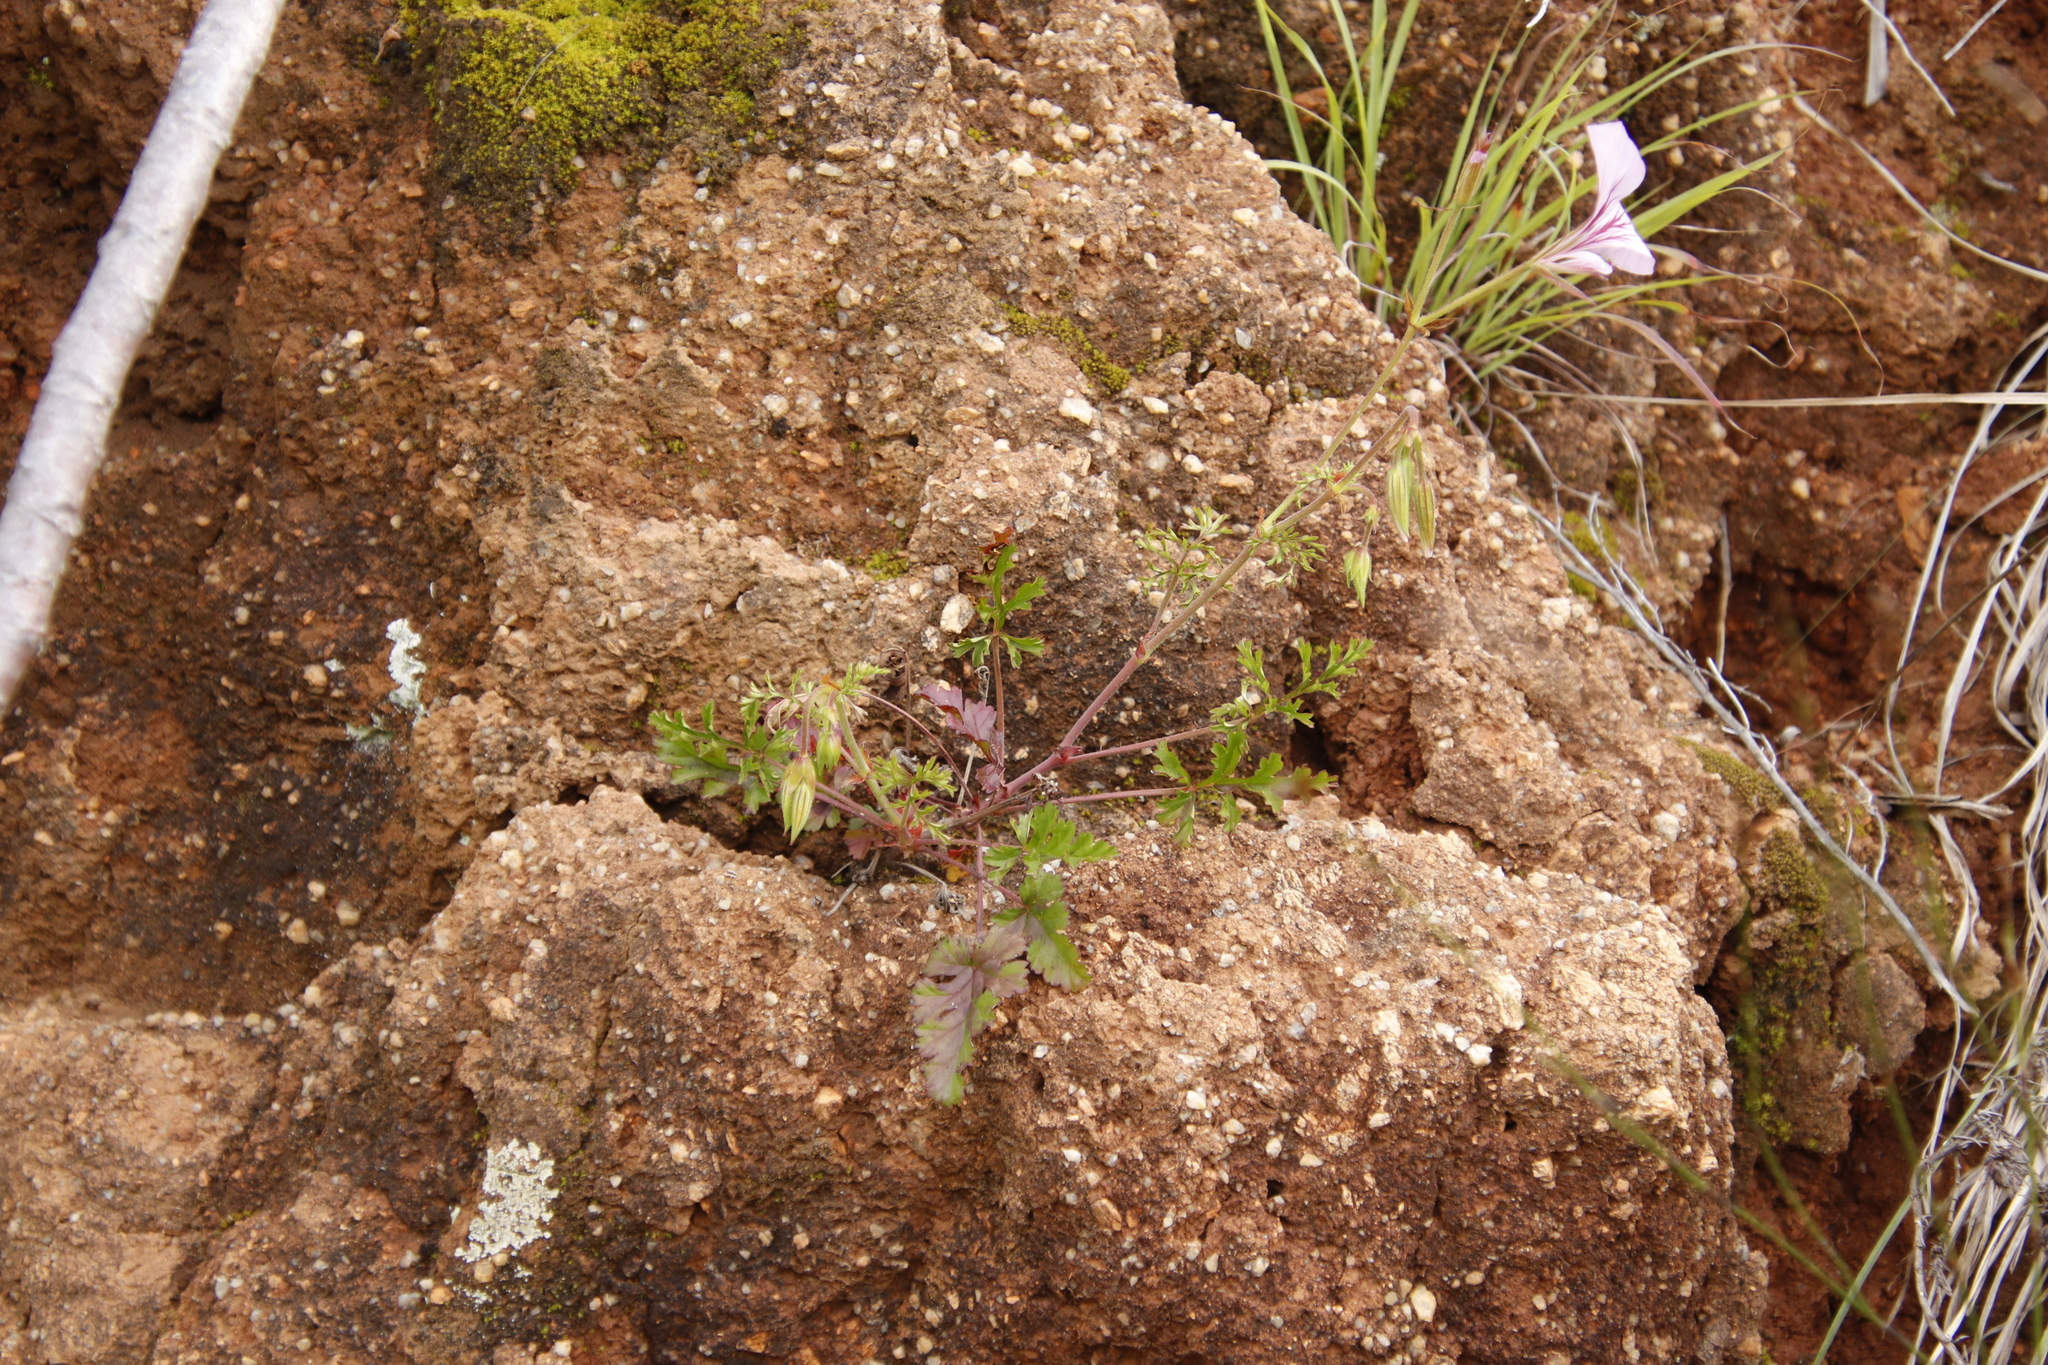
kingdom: Plantae
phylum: Tracheophyta
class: Magnoliopsida
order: Geraniales
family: Geraniaceae
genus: Pelargonium
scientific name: Pelargonium longicaule
